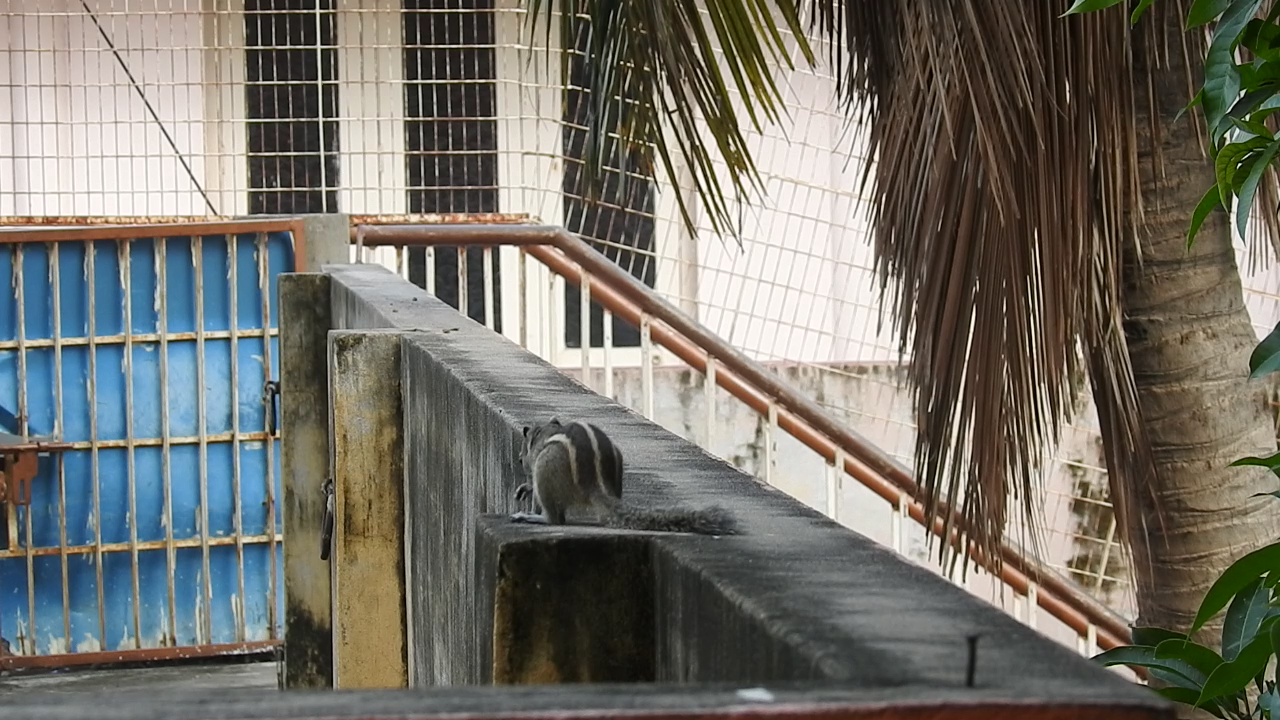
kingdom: Animalia
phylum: Chordata
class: Mammalia
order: Rodentia
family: Sciuridae
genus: Funambulus
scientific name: Funambulus palmarum
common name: Indian palm squirrel
